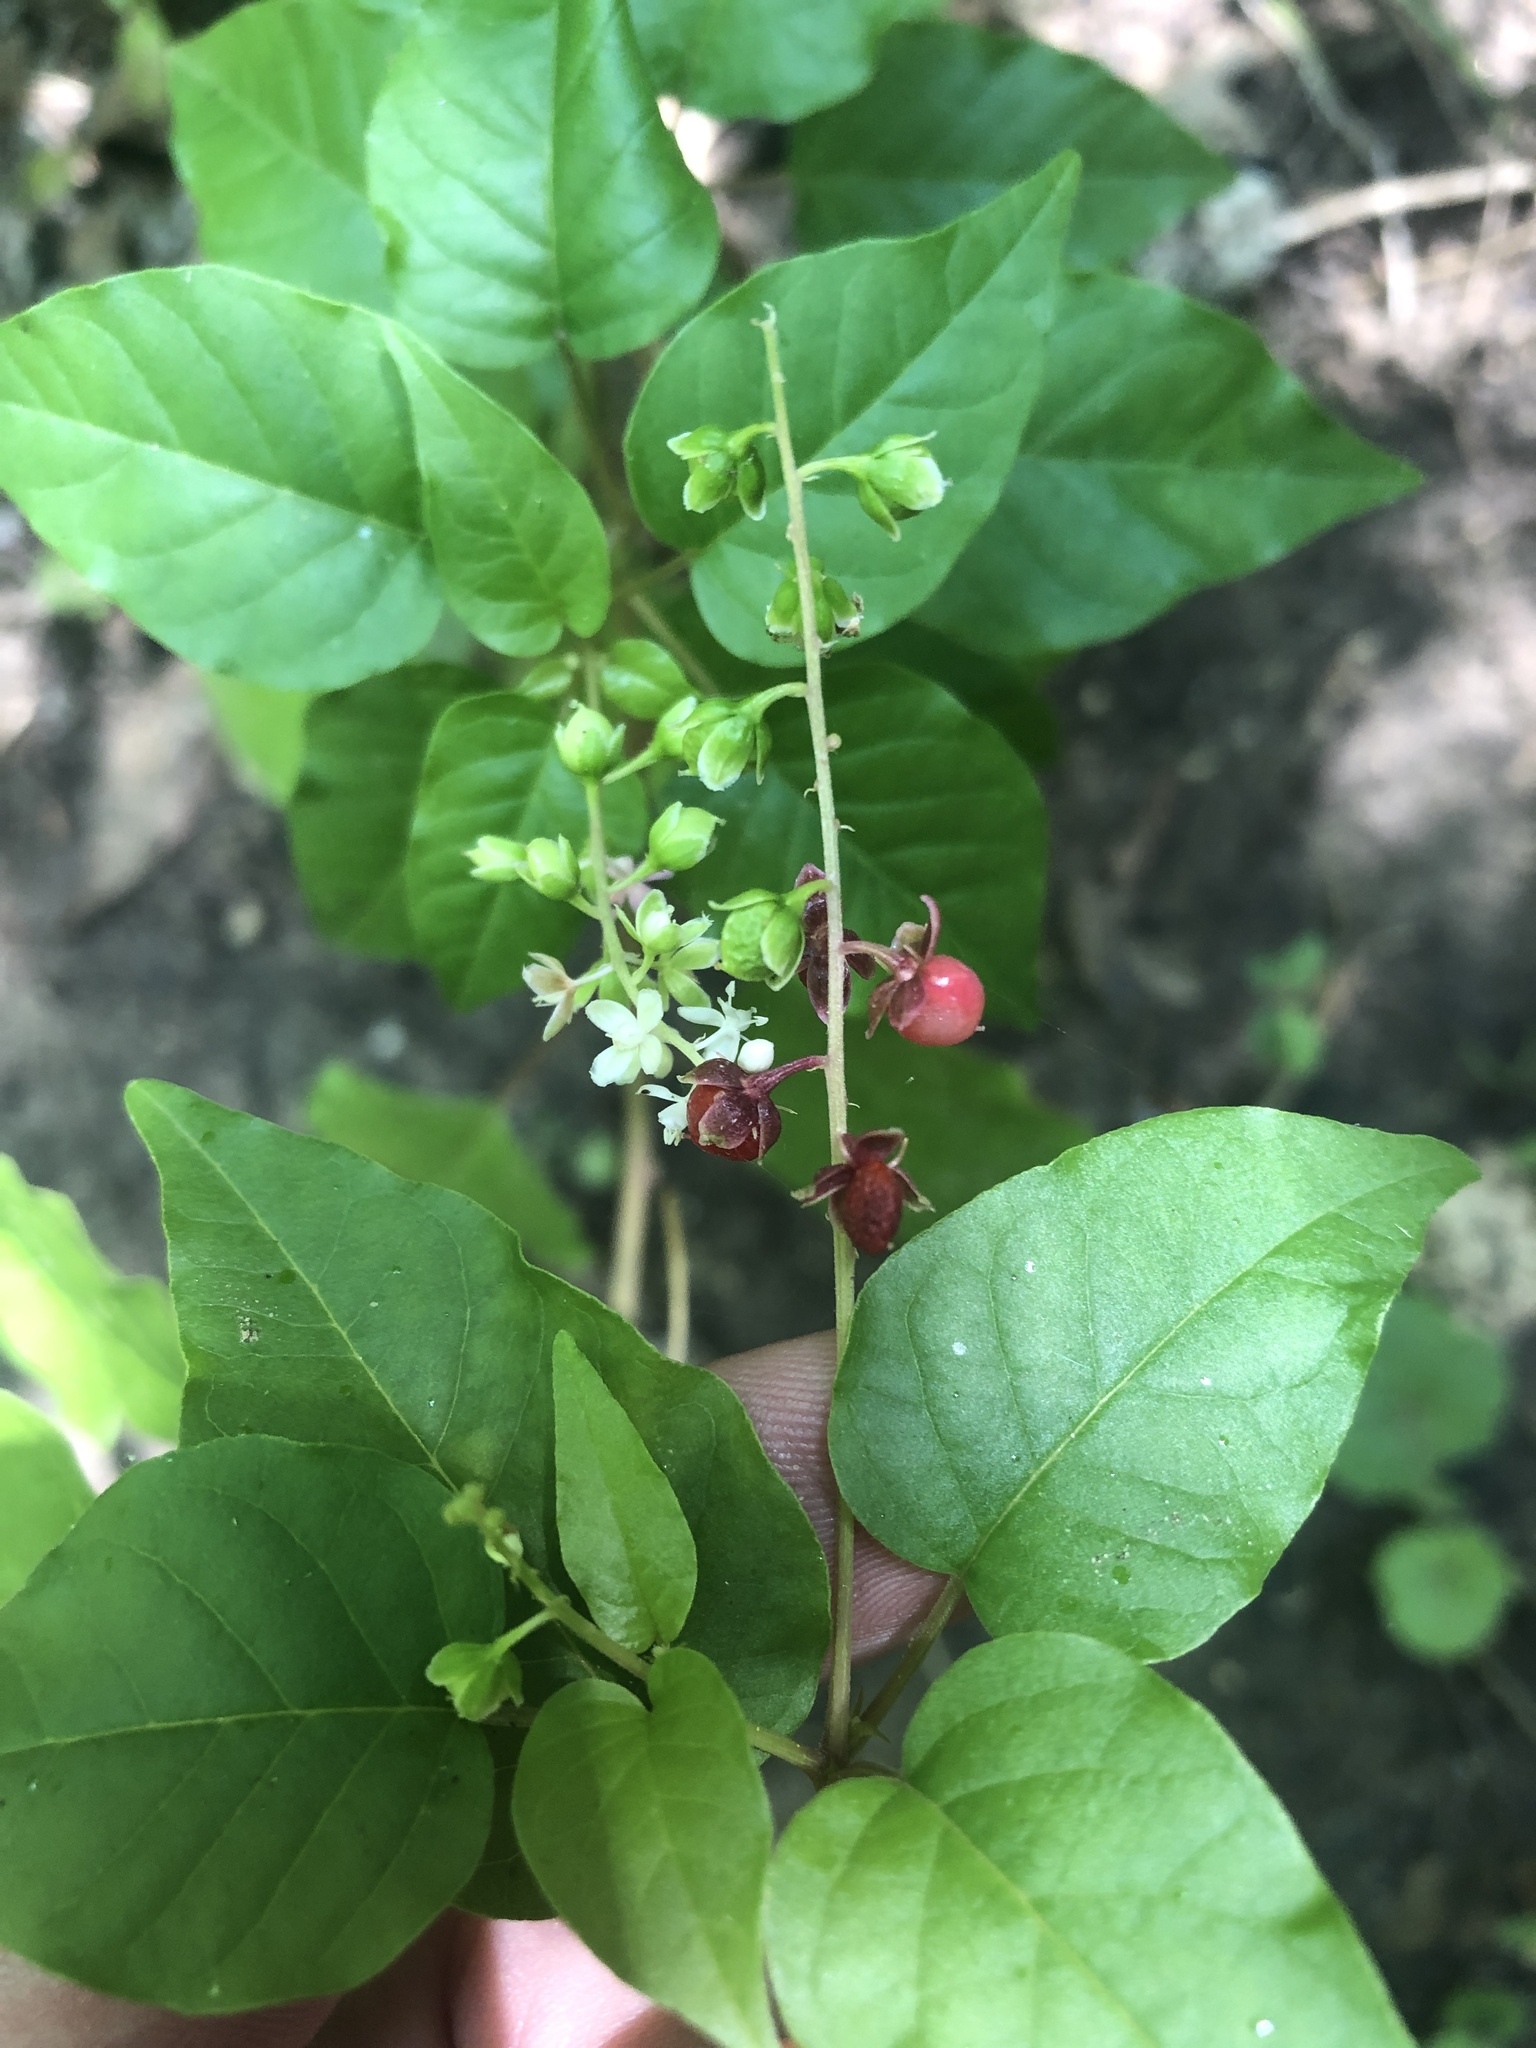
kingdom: Plantae
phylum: Tracheophyta
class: Magnoliopsida
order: Caryophyllales
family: Phytolaccaceae
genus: Rivina
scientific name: Rivina humilis
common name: Rougeplant
